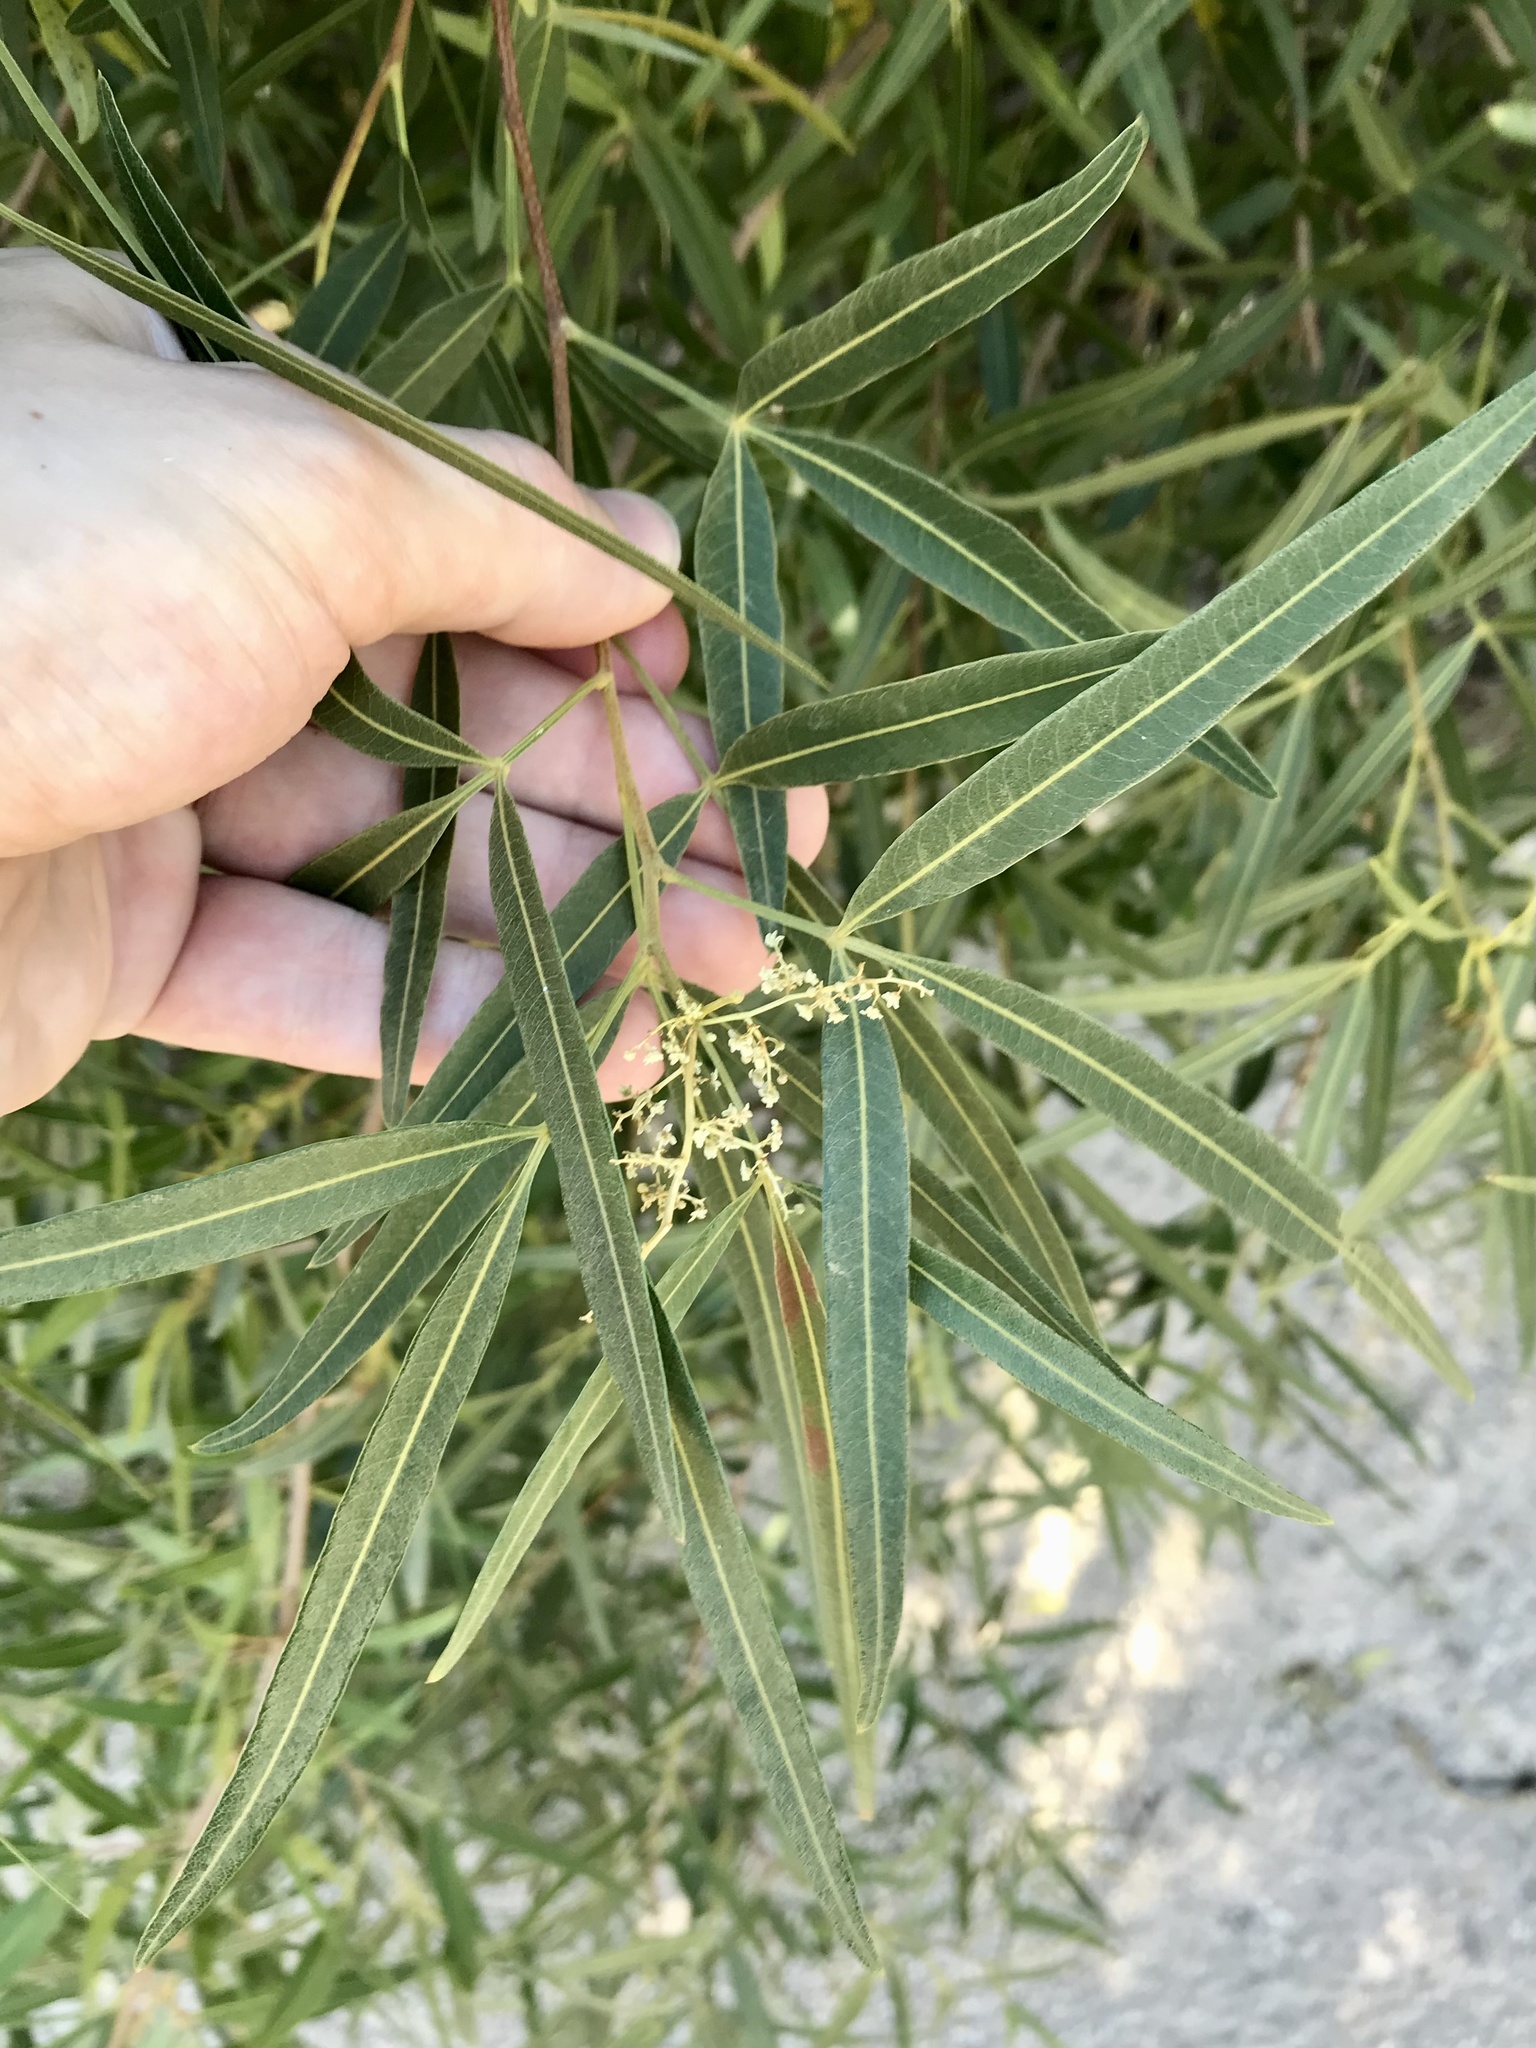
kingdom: Plantae
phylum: Tracheophyta
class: Magnoliopsida
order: Sapindales
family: Anacardiaceae
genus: Searsia
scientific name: Searsia lancea
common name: Cashew
